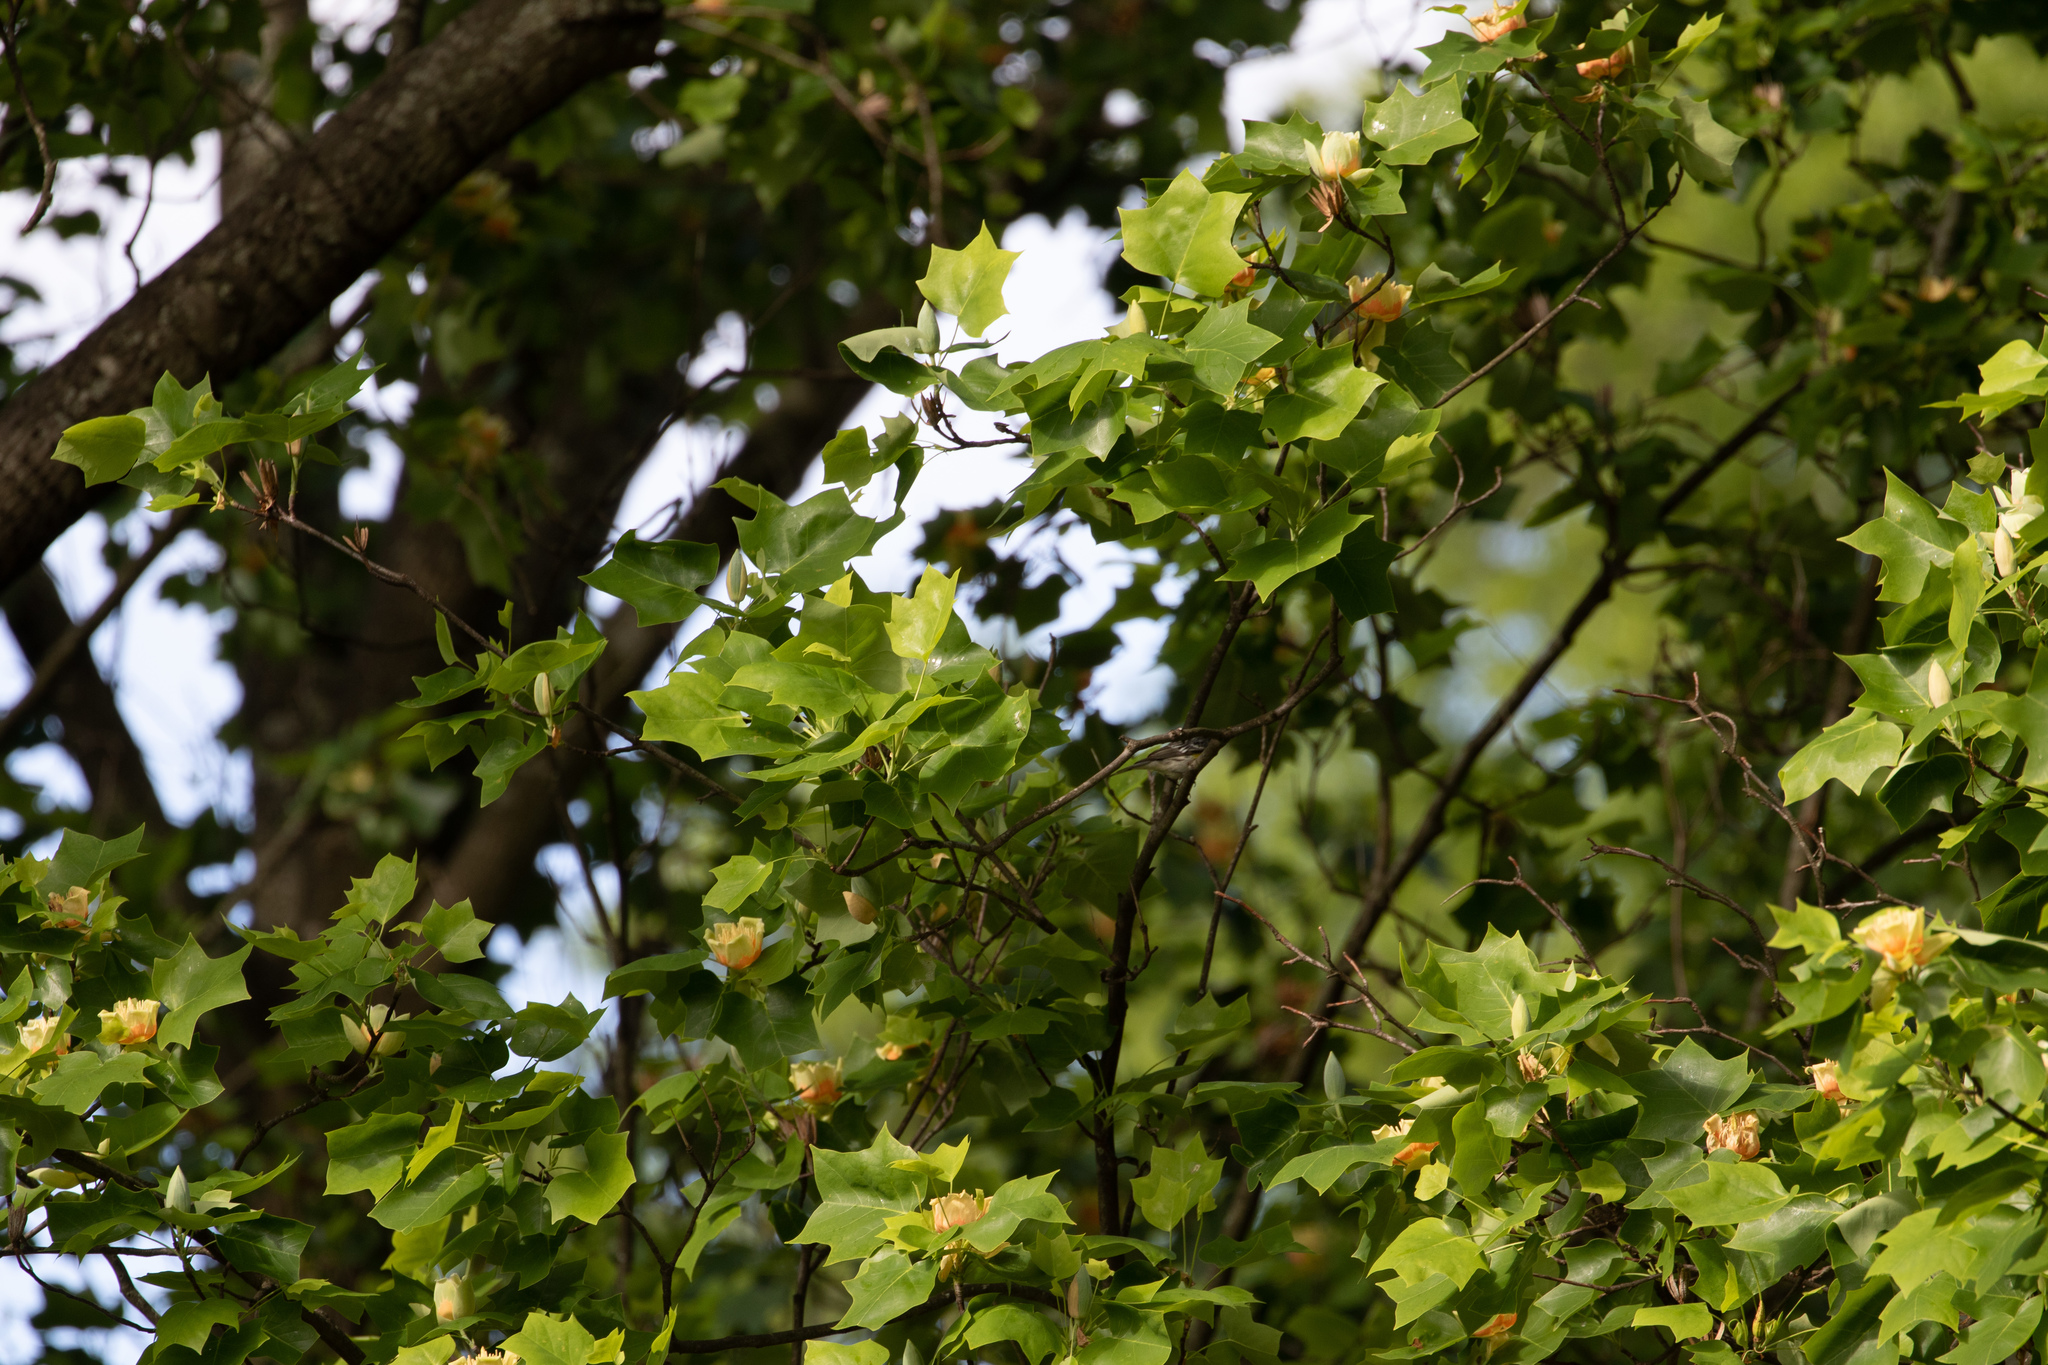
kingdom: Plantae
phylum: Tracheophyta
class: Magnoliopsida
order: Magnoliales
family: Magnoliaceae
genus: Liriodendron
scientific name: Liriodendron tulipifera
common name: Tulip tree
